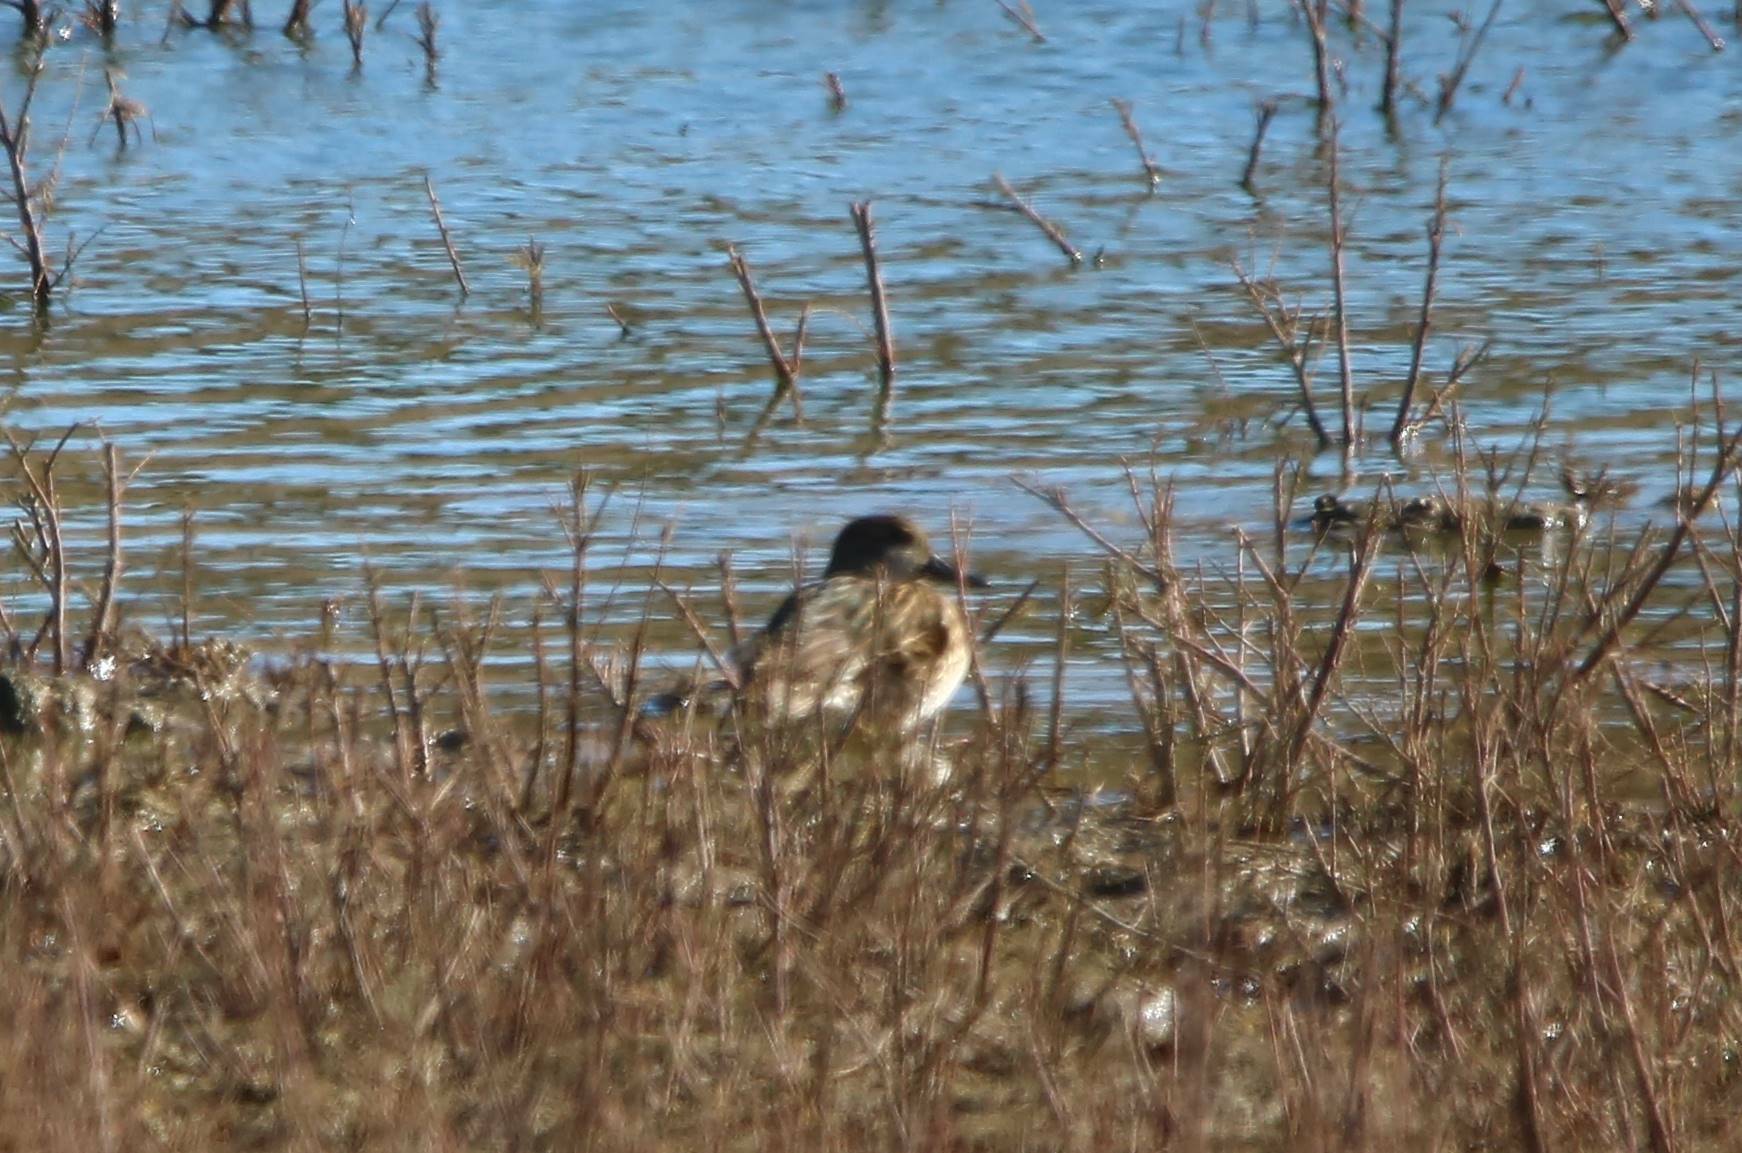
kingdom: Animalia
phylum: Chordata
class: Aves
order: Anseriformes
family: Anatidae
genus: Mareca
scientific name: Mareca strepera
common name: Gadwall
